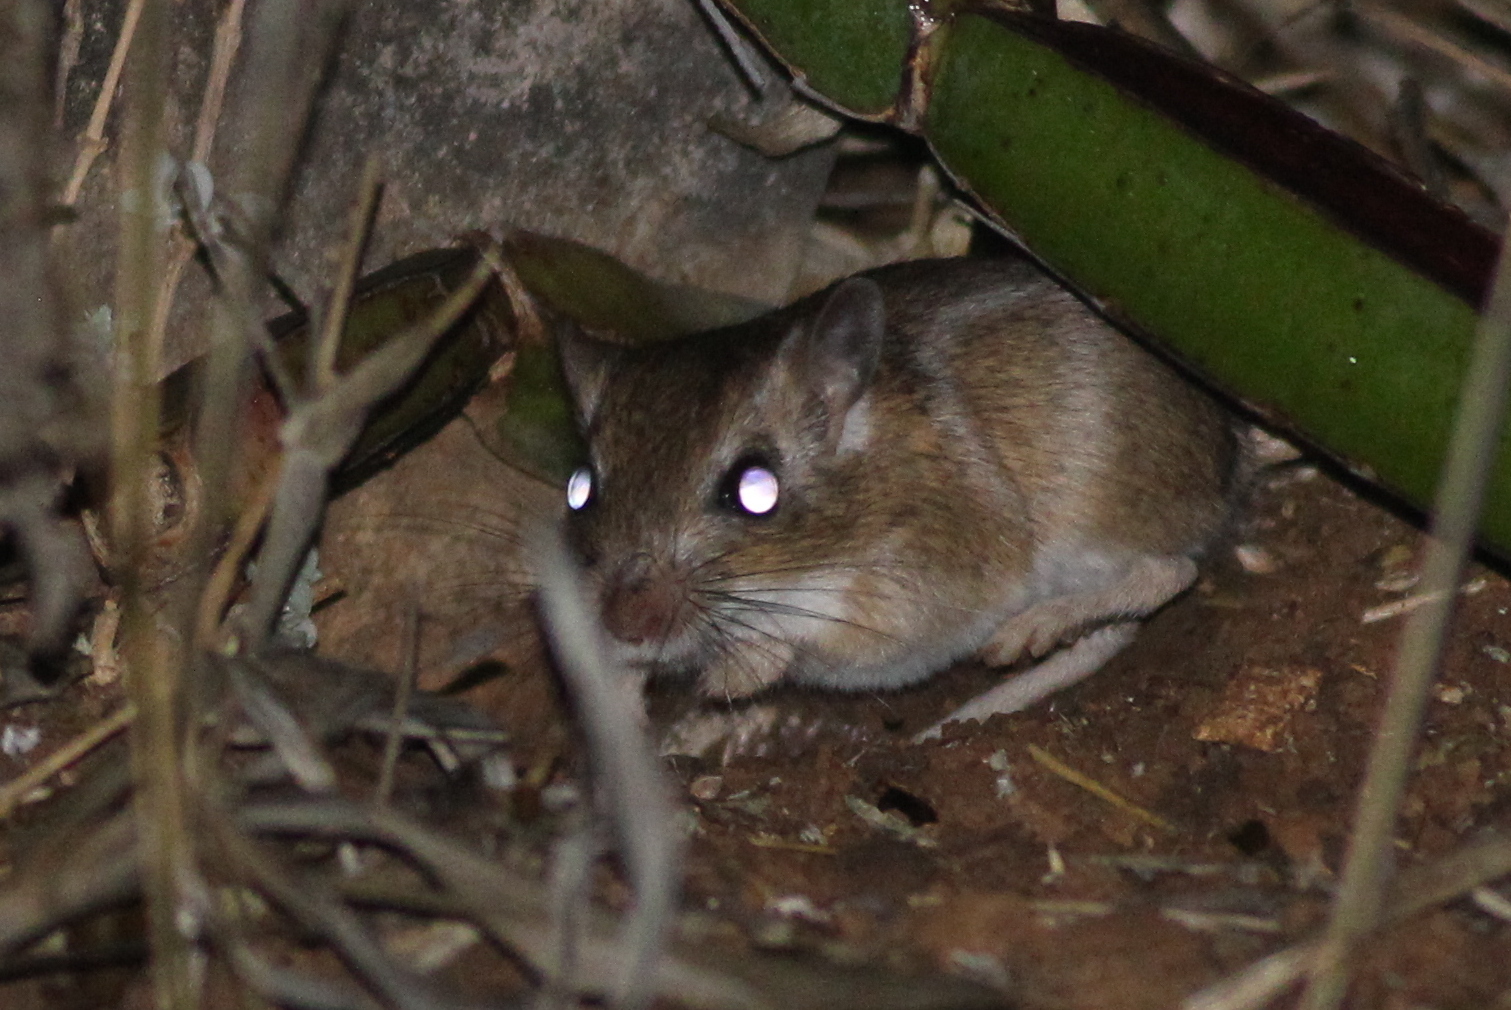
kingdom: Animalia
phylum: Chordata
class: Mammalia
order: Rodentia
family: Muridae
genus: Meriones
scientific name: Meriones arimalius
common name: Arabian jird
